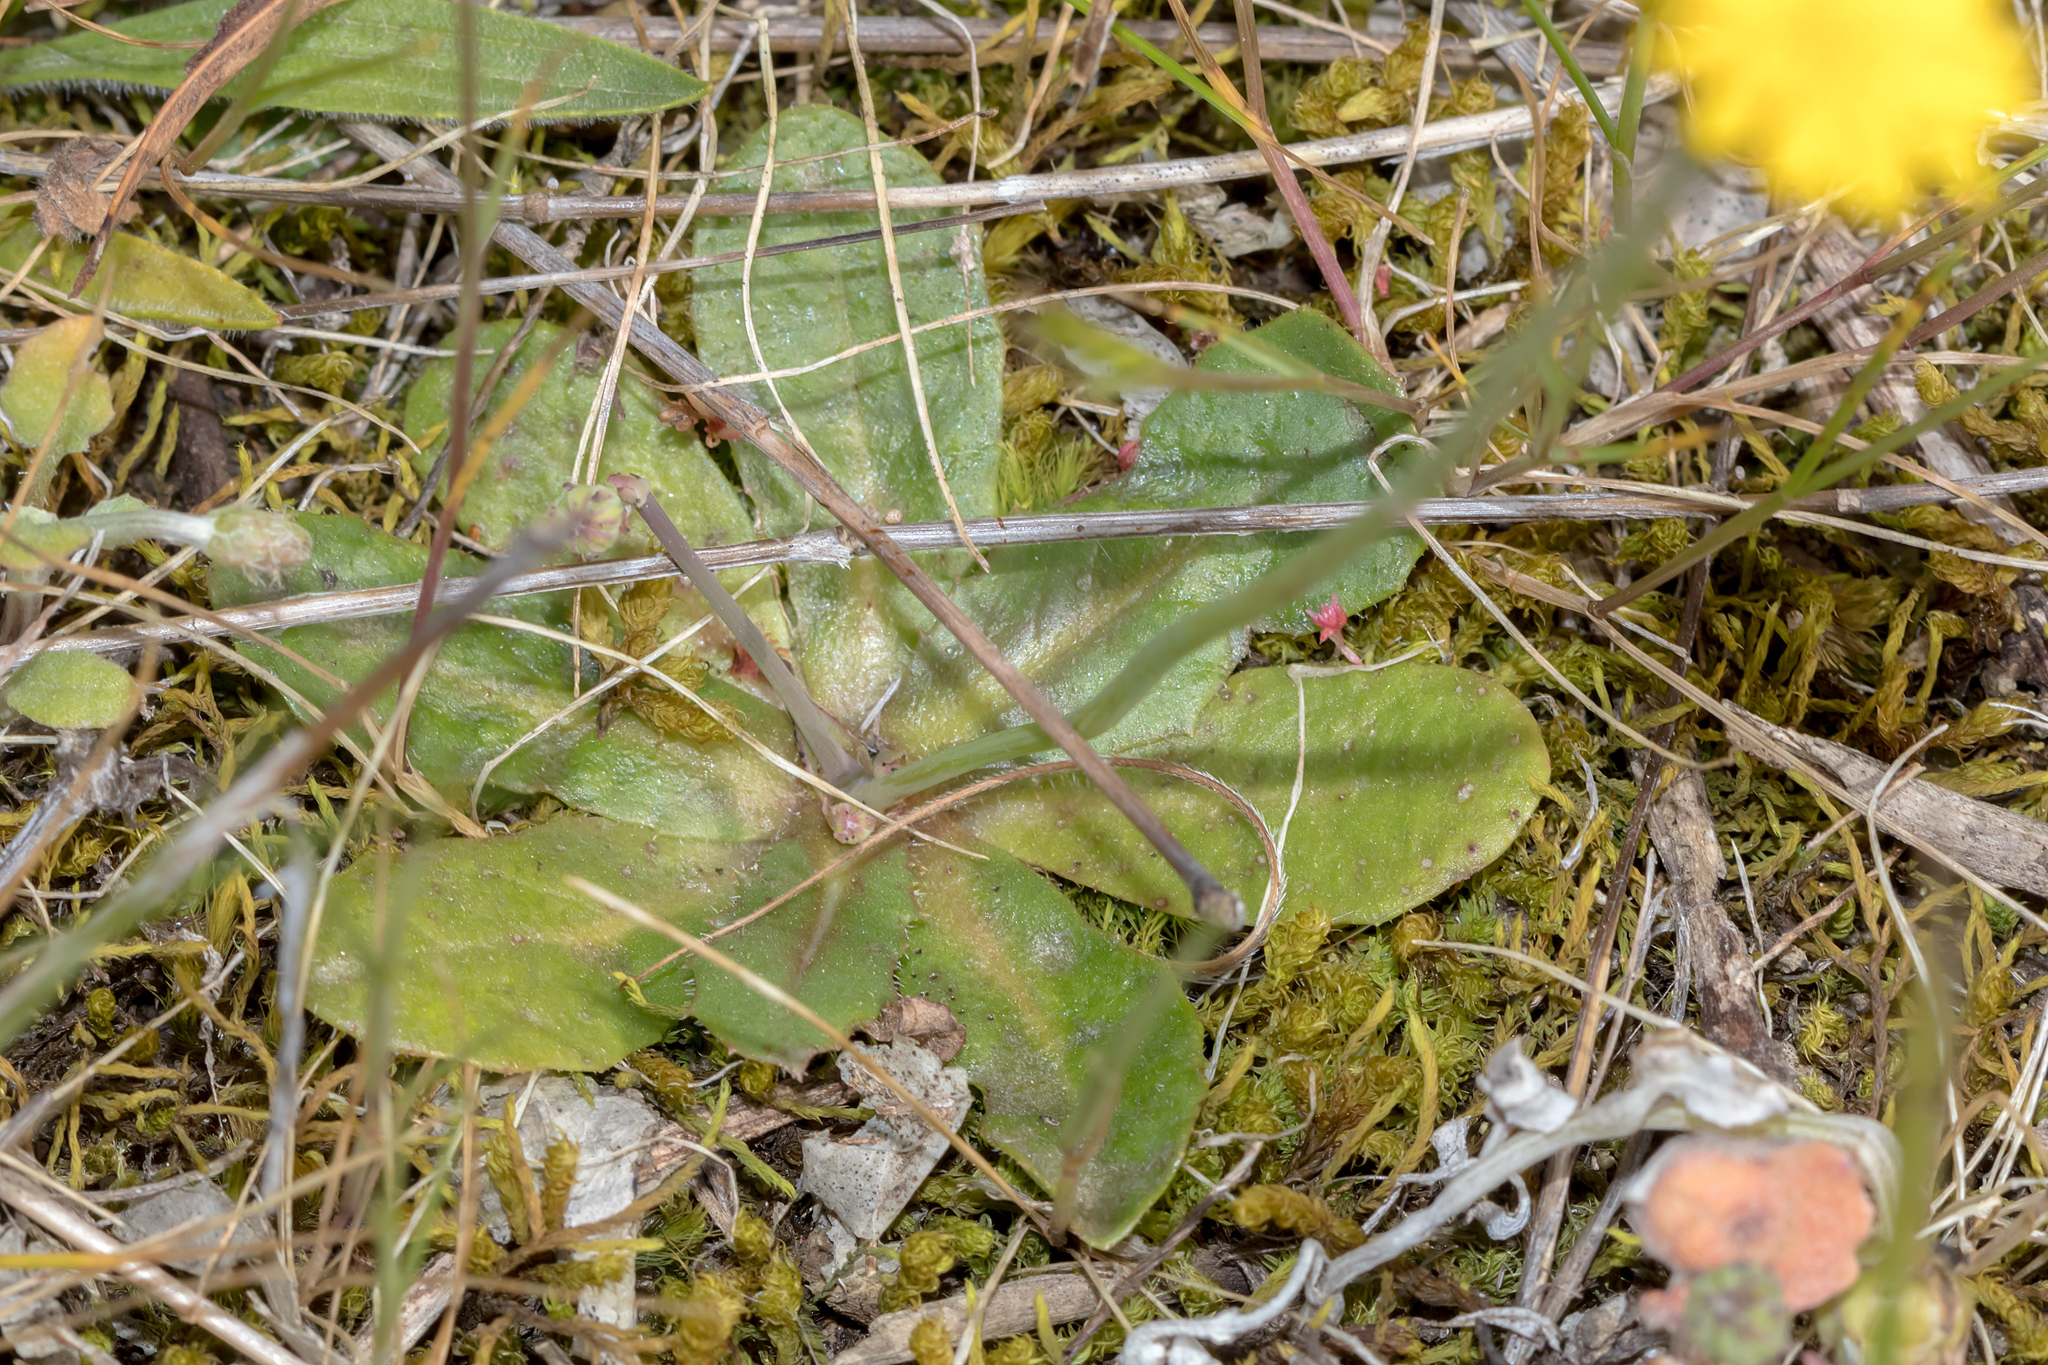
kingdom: Plantae
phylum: Tracheophyta
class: Magnoliopsida
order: Asterales
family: Asteraceae
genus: Hypochaeris
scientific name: Hypochaeris glabra
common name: Smooth catsear
